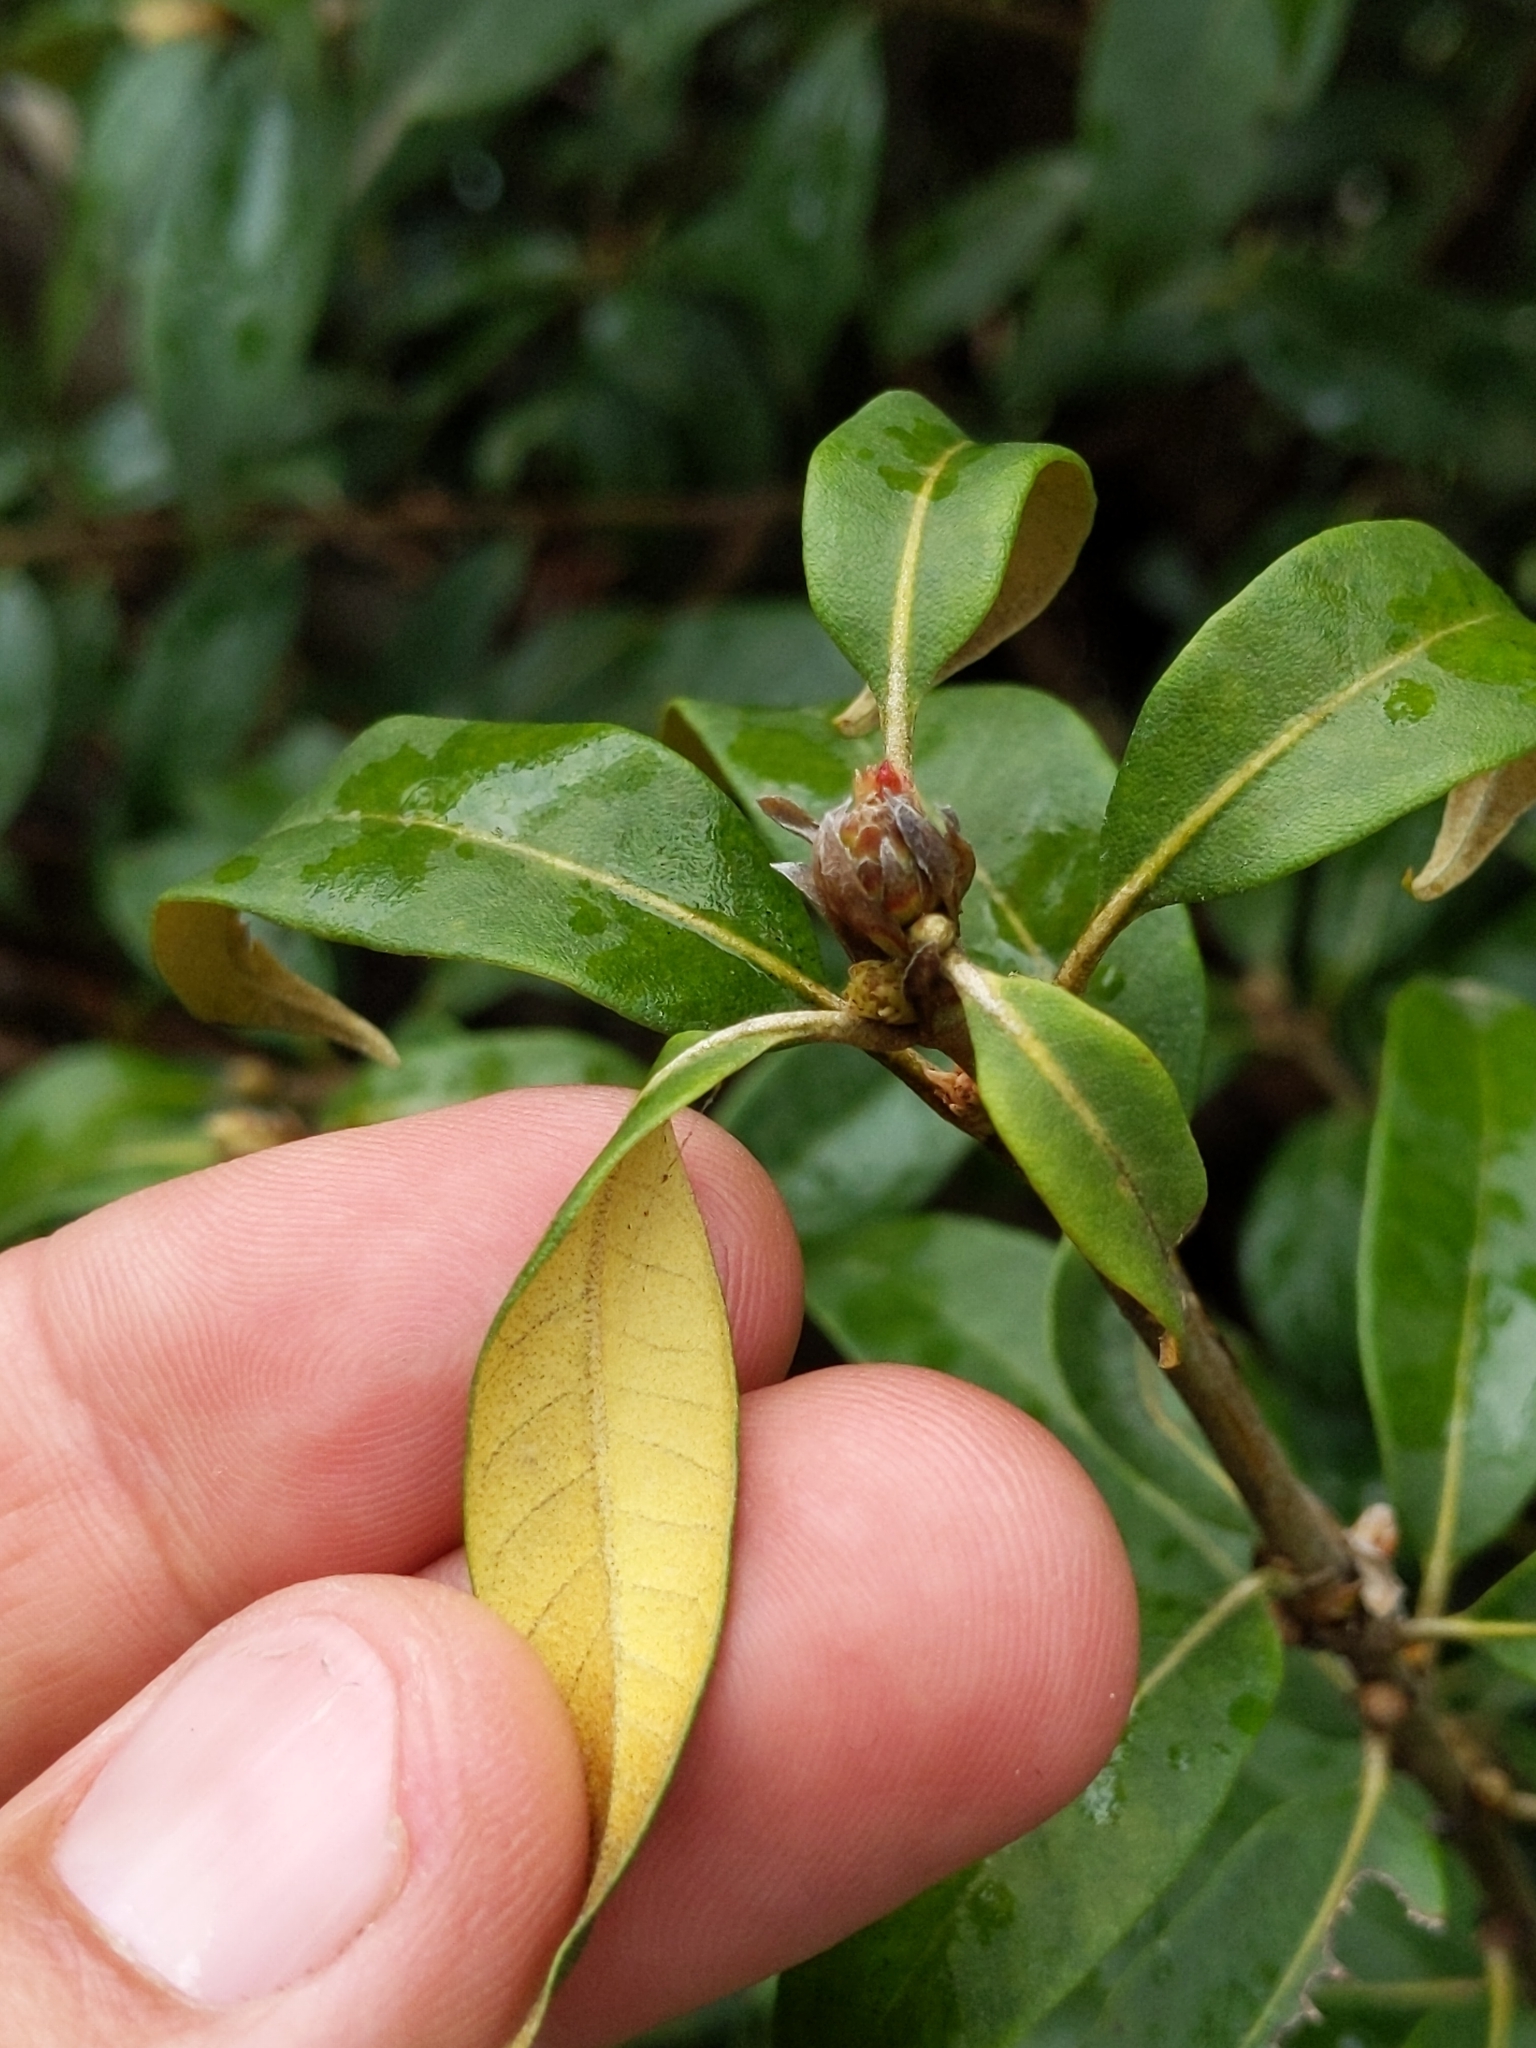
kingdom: Plantae
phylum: Tracheophyta
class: Magnoliopsida
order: Fagales
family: Fagaceae
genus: Chrysolepis
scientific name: Chrysolepis chrysophylla
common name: Giant chinquapin
